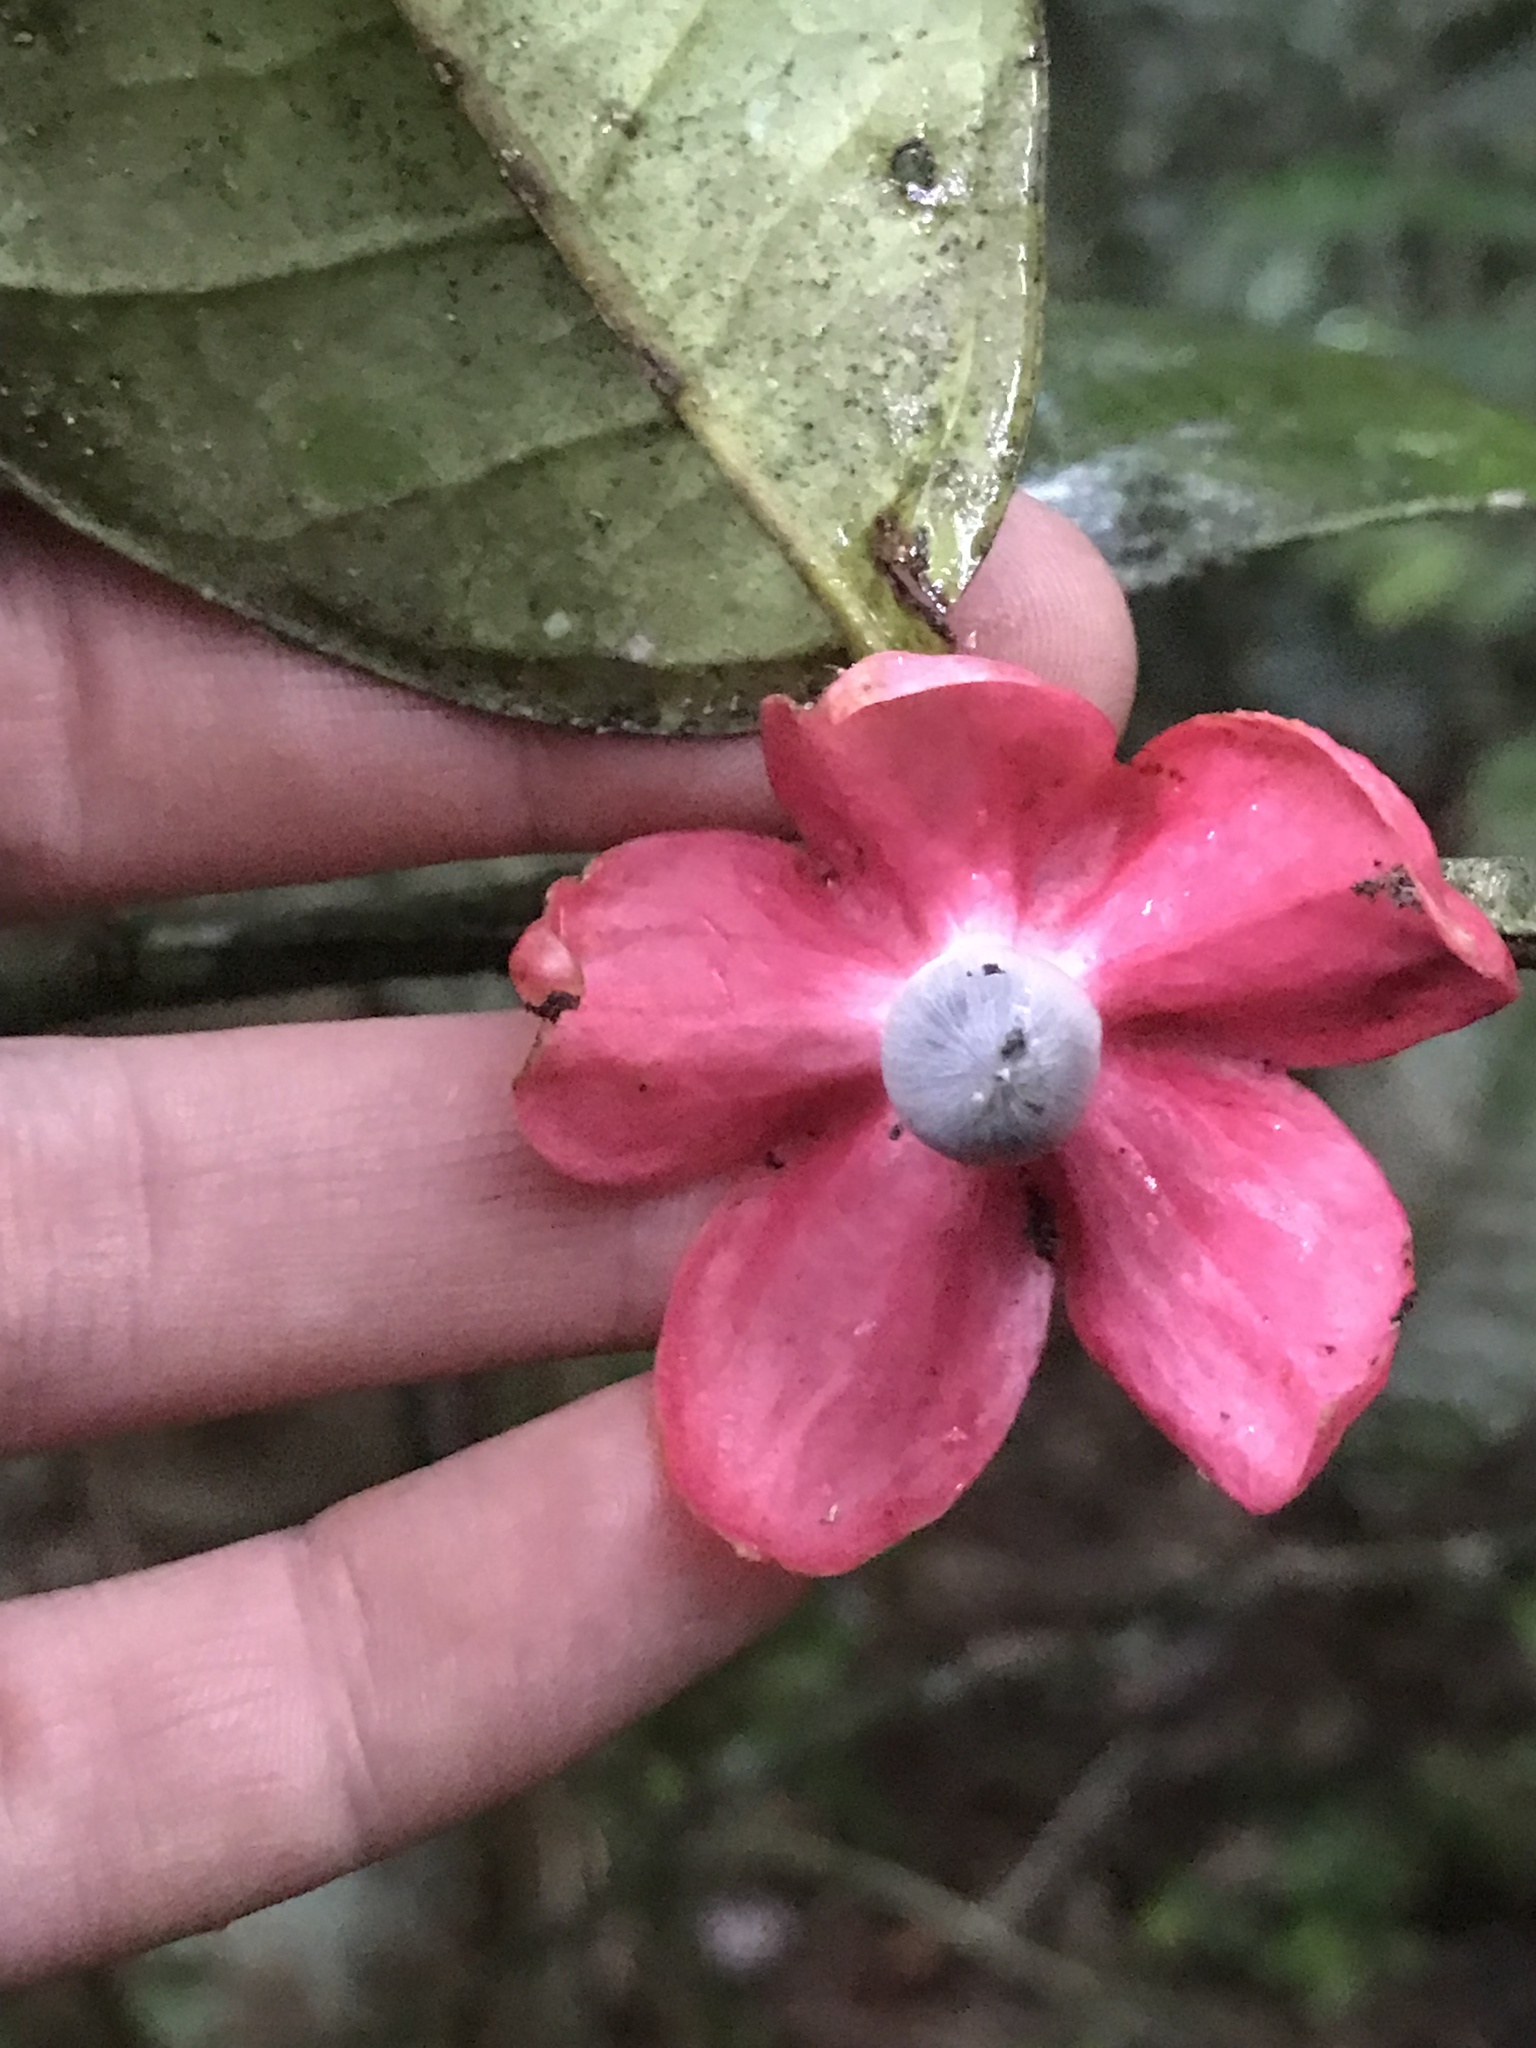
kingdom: Plantae
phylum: Tracheophyta
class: Magnoliopsida
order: Santalales
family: Erythropalaceae
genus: Heisteria
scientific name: Heisteria spruceana
